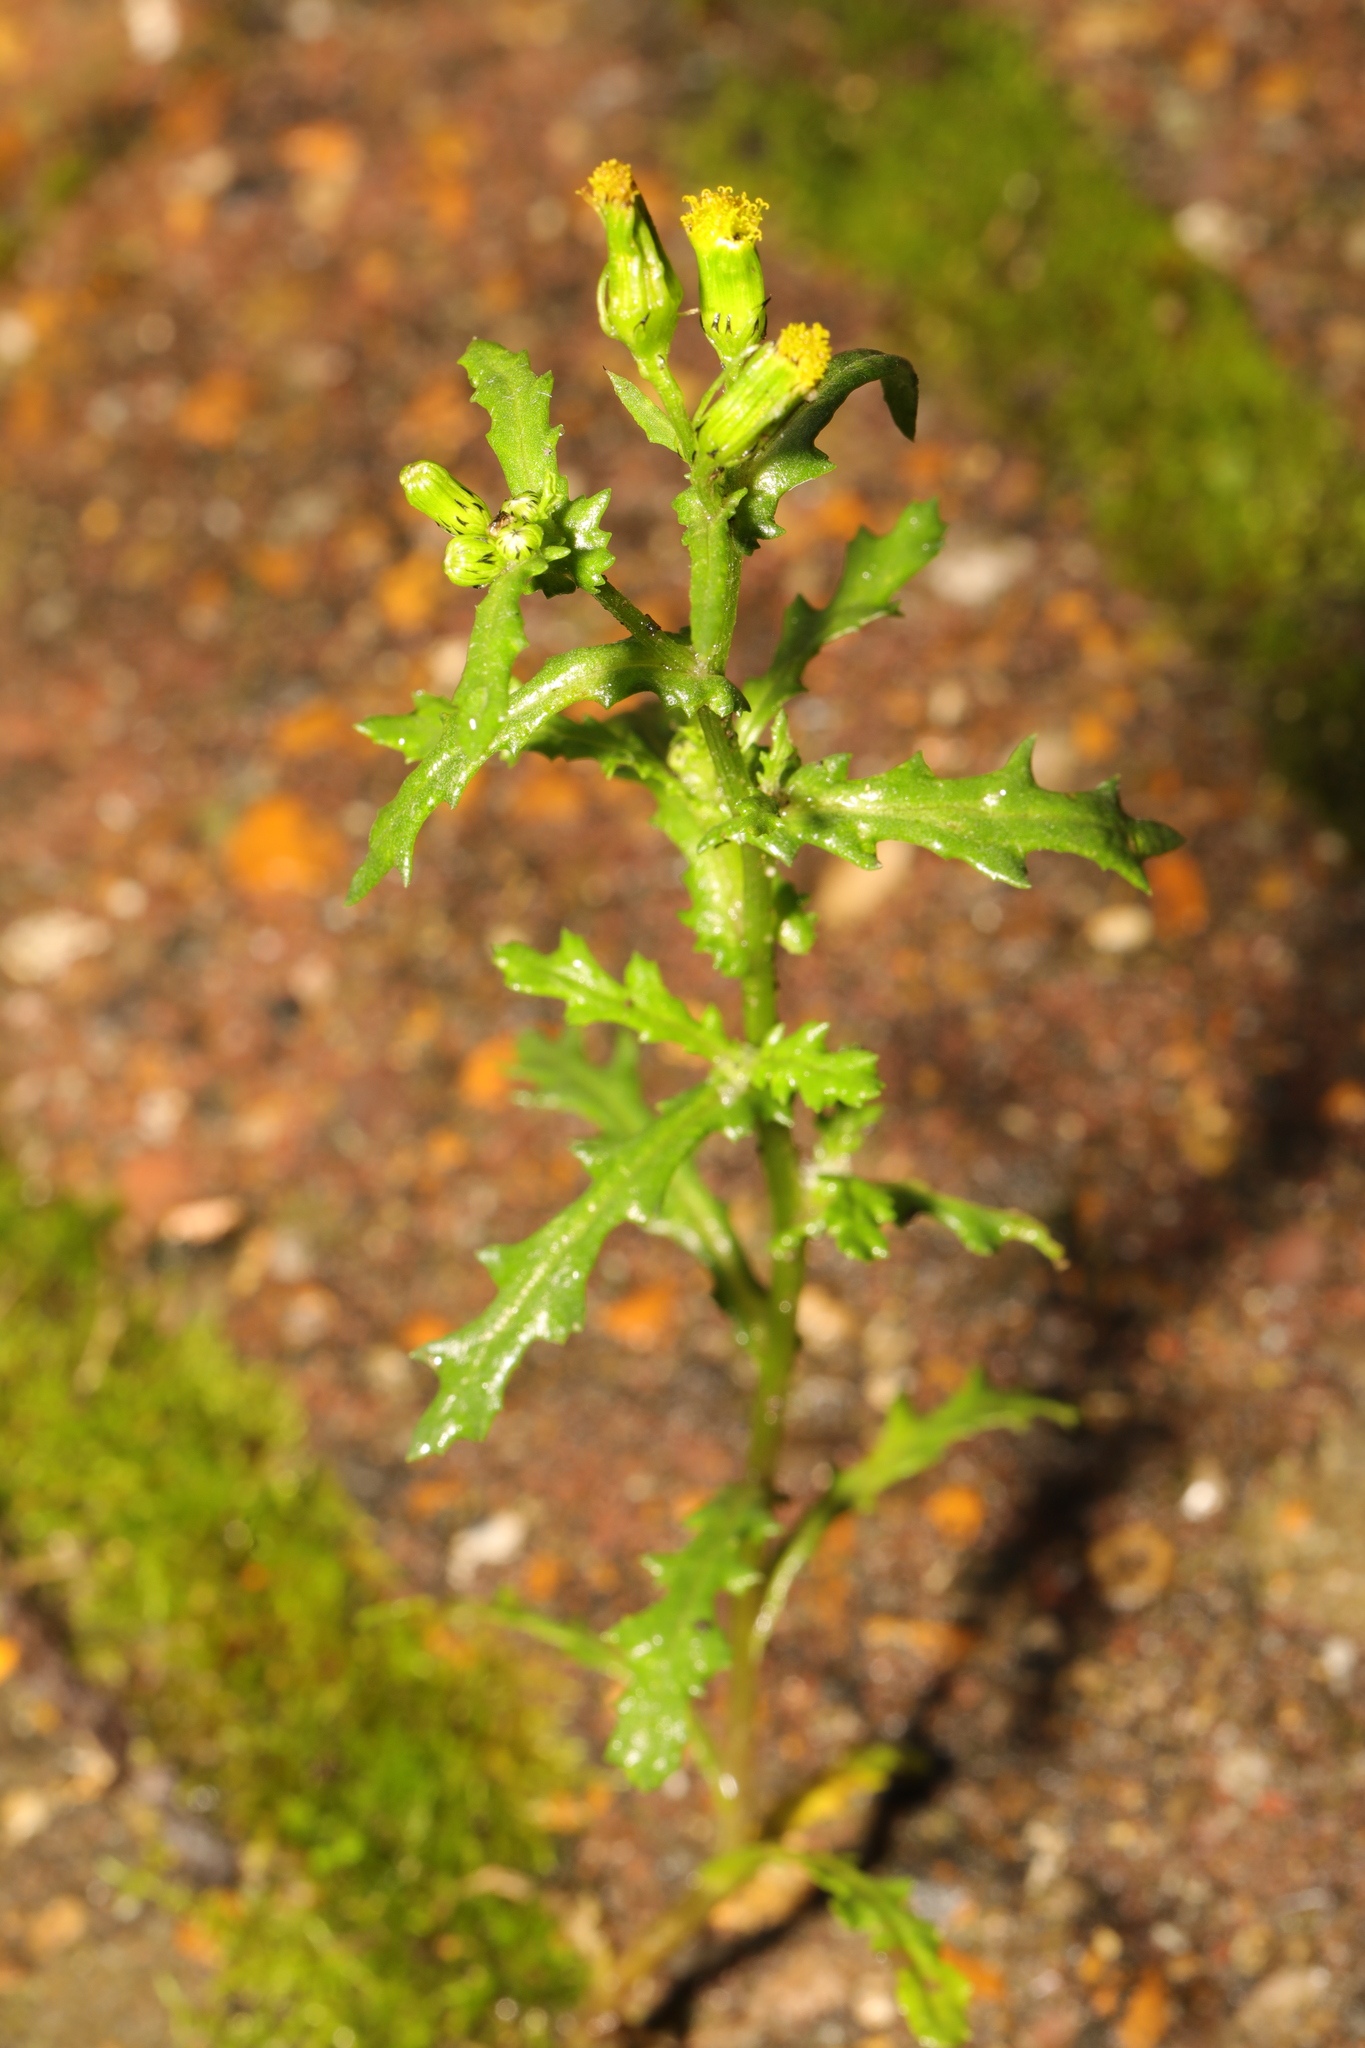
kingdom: Plantae
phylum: Tracheophyta
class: Magnoliopsida
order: Asterales
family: Asteraceae
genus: Senecio
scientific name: Senecio vulgaris
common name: Old-man-in-the-spring
